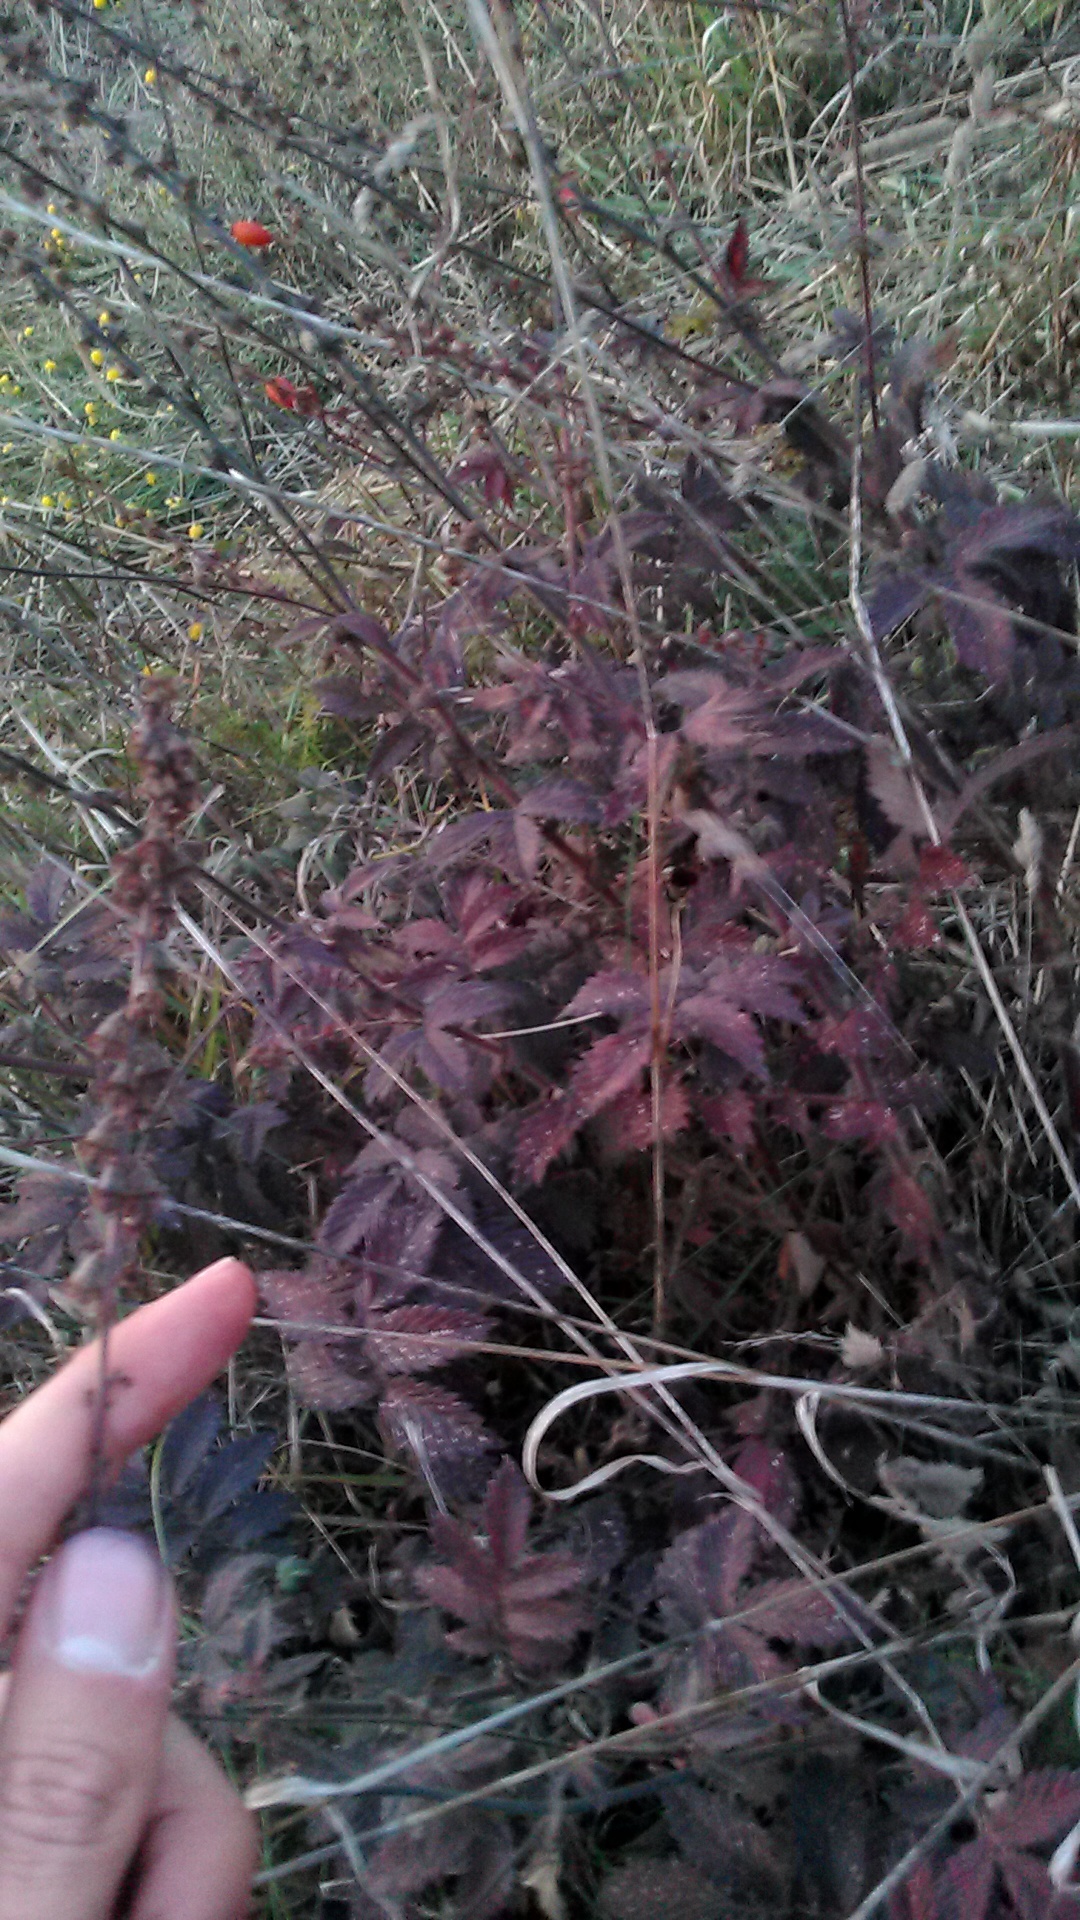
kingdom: Plantae
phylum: Tracheophyta
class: Magnoliopsida
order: Rosales
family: Rosaceae
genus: Agrimonia
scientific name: Agrimonia eupatoria
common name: Agrimony
